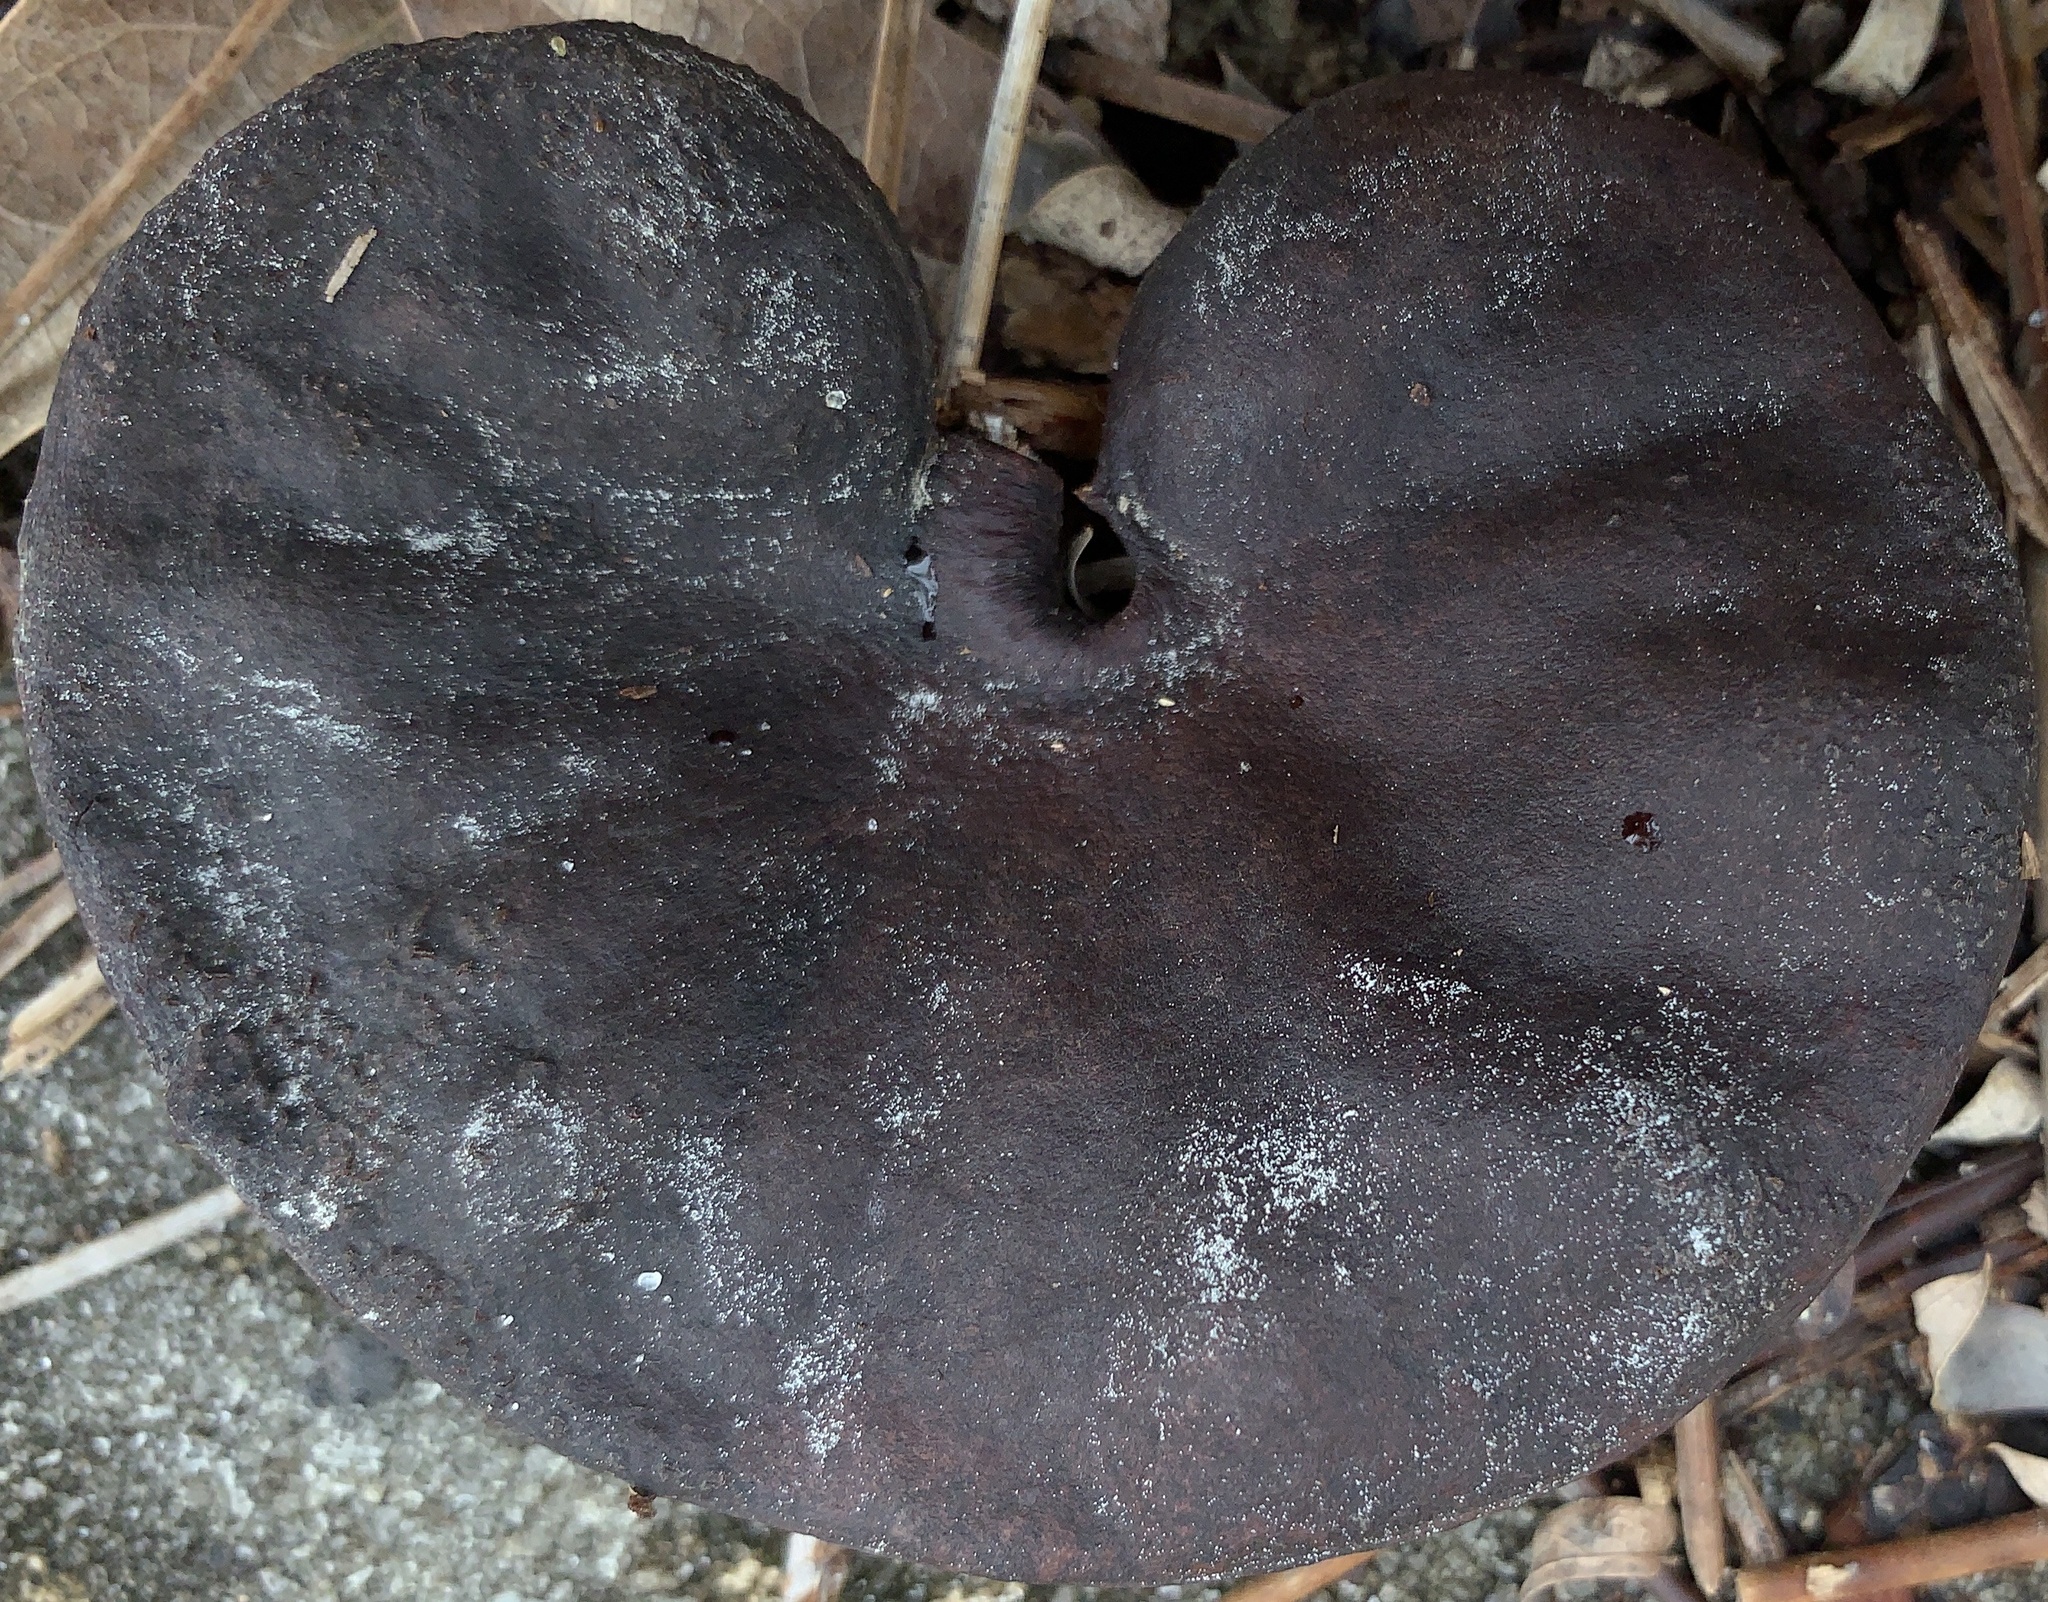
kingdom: Plantae
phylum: Tracheophyta
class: Magnoliopsida
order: Fabales
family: Fabaceae
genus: Enterolobium
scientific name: Enterolobium contortisiliquum
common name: Pacara earpod tree
